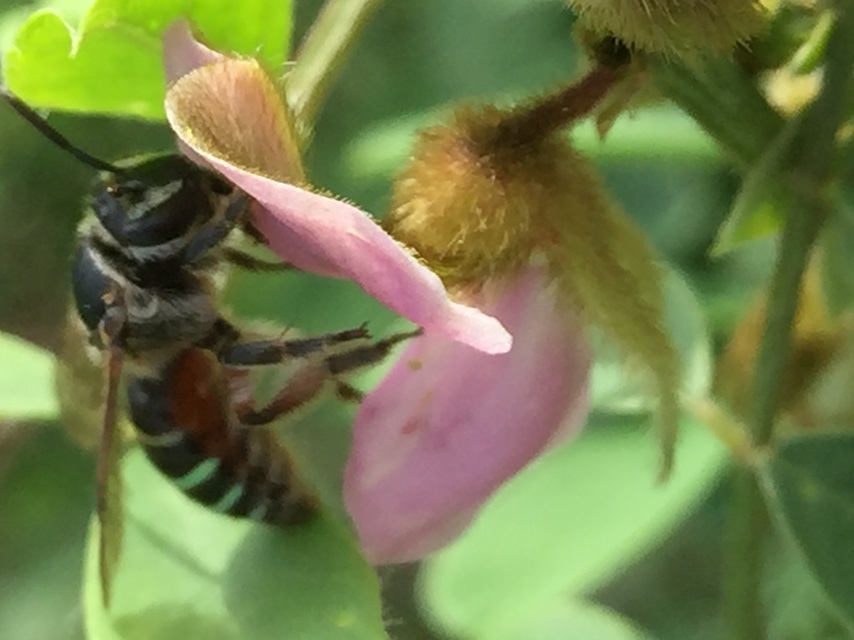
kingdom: Animalia
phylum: Arthropoda
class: Insecta
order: Hymenoptera
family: Halictidae
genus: Nomia
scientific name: Nomia westwoodi
